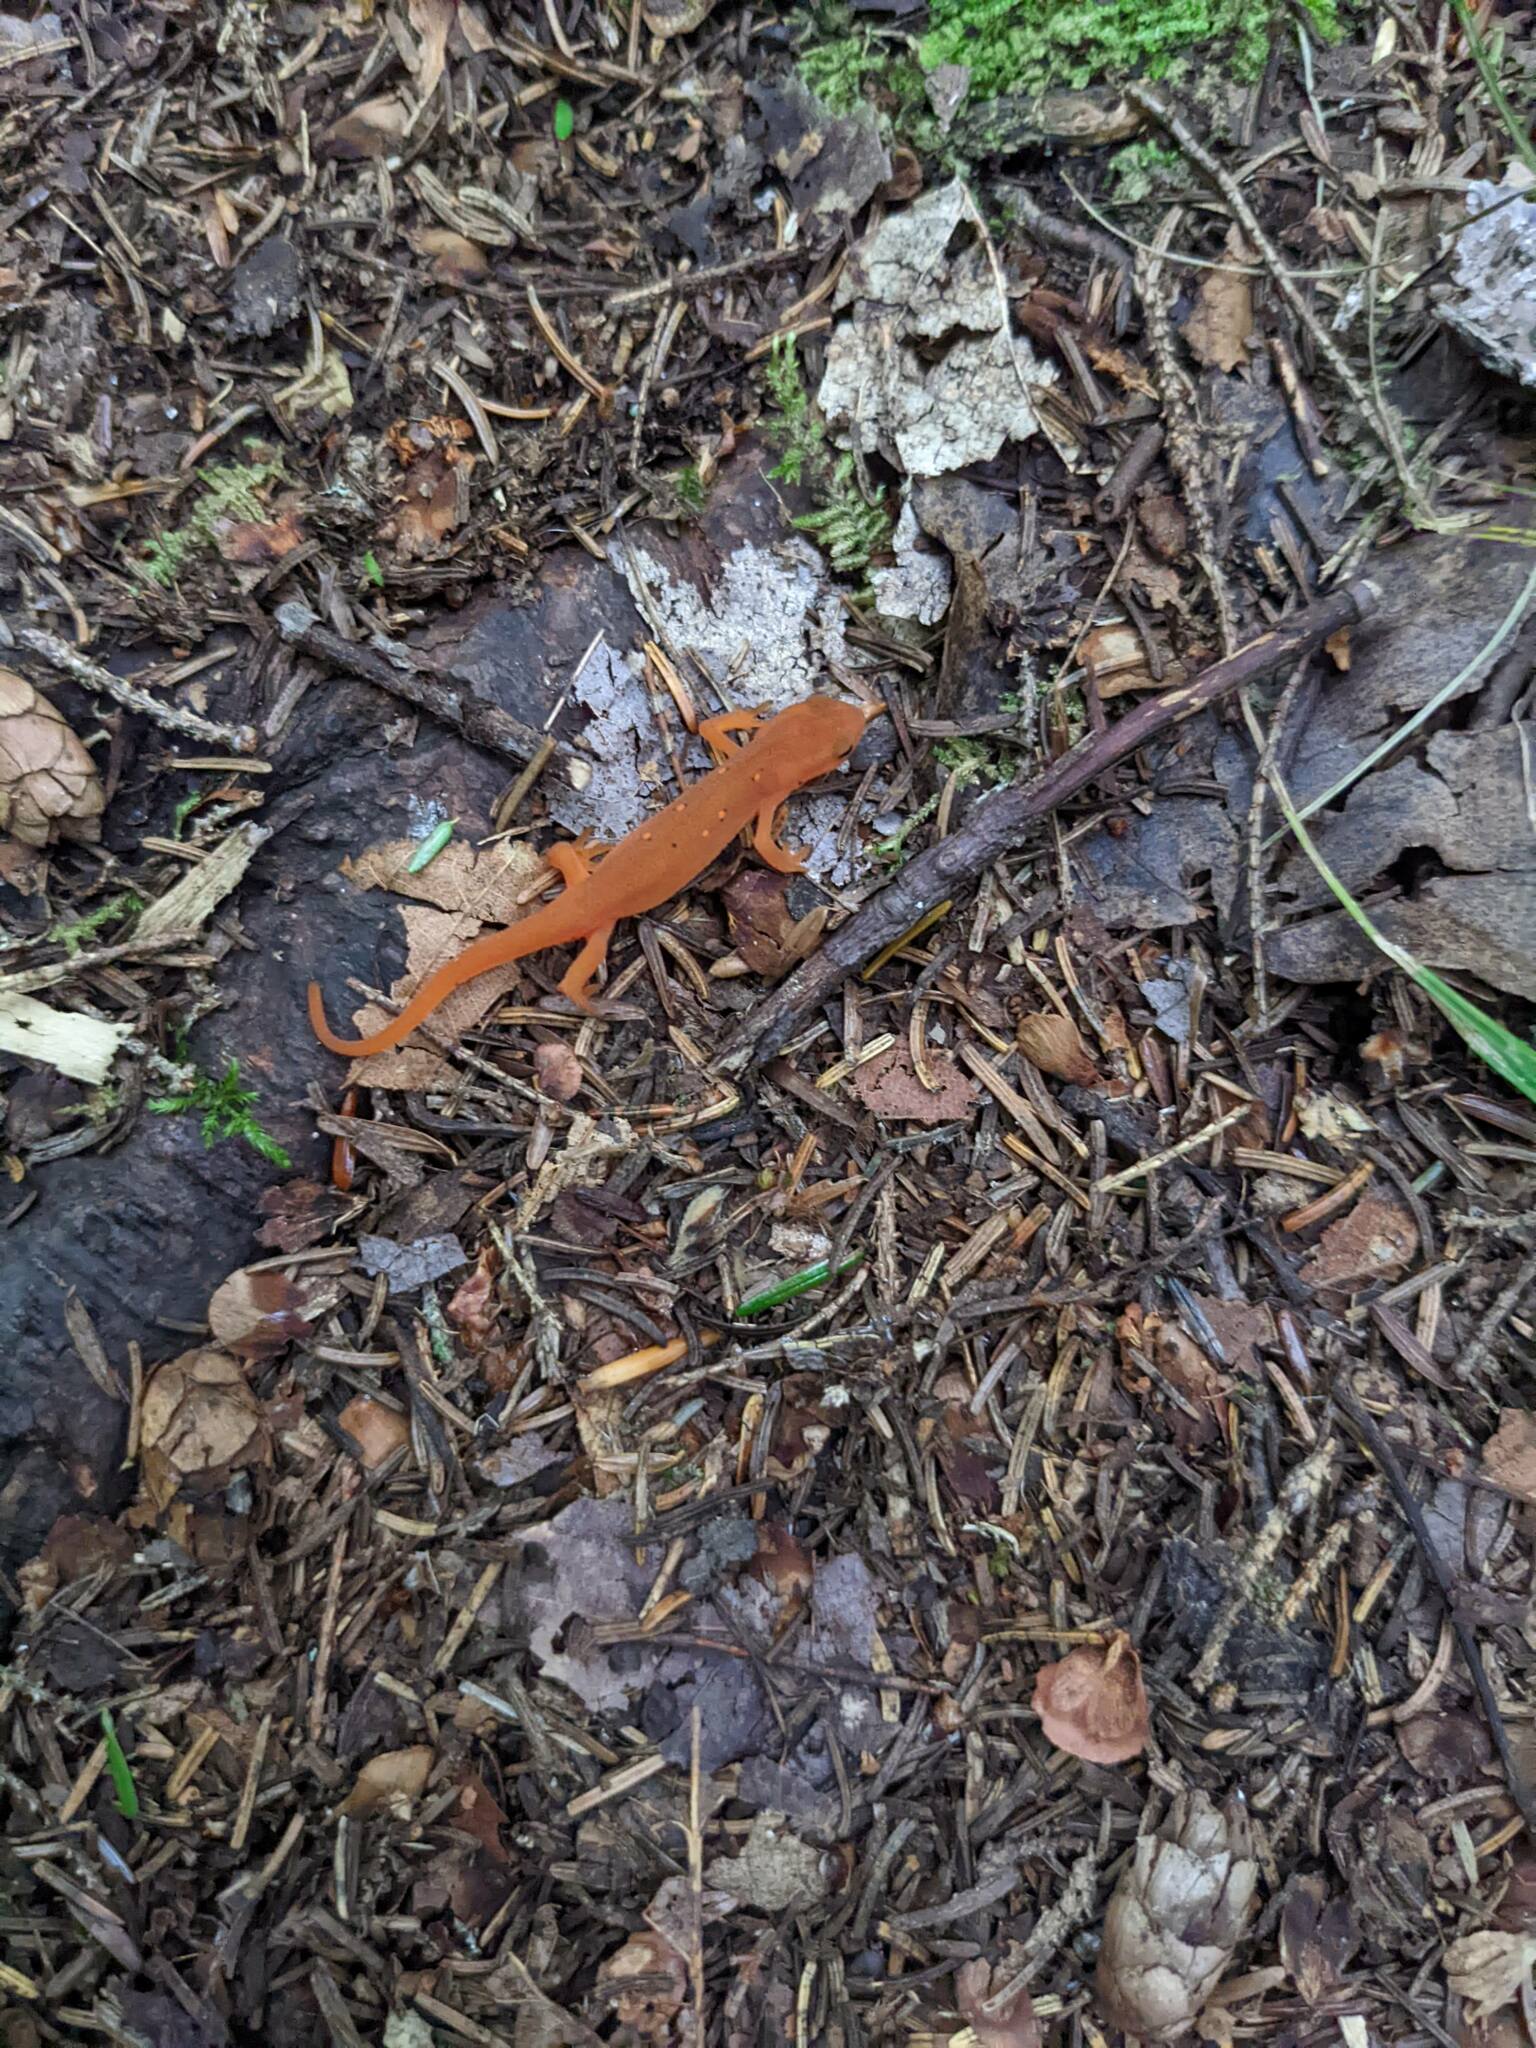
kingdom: Animalia
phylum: Chordata
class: Amphibia
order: Caudata
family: Salamandridae
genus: Notophthalmus
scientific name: Notophthalmus viridescens
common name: Eastern newt
